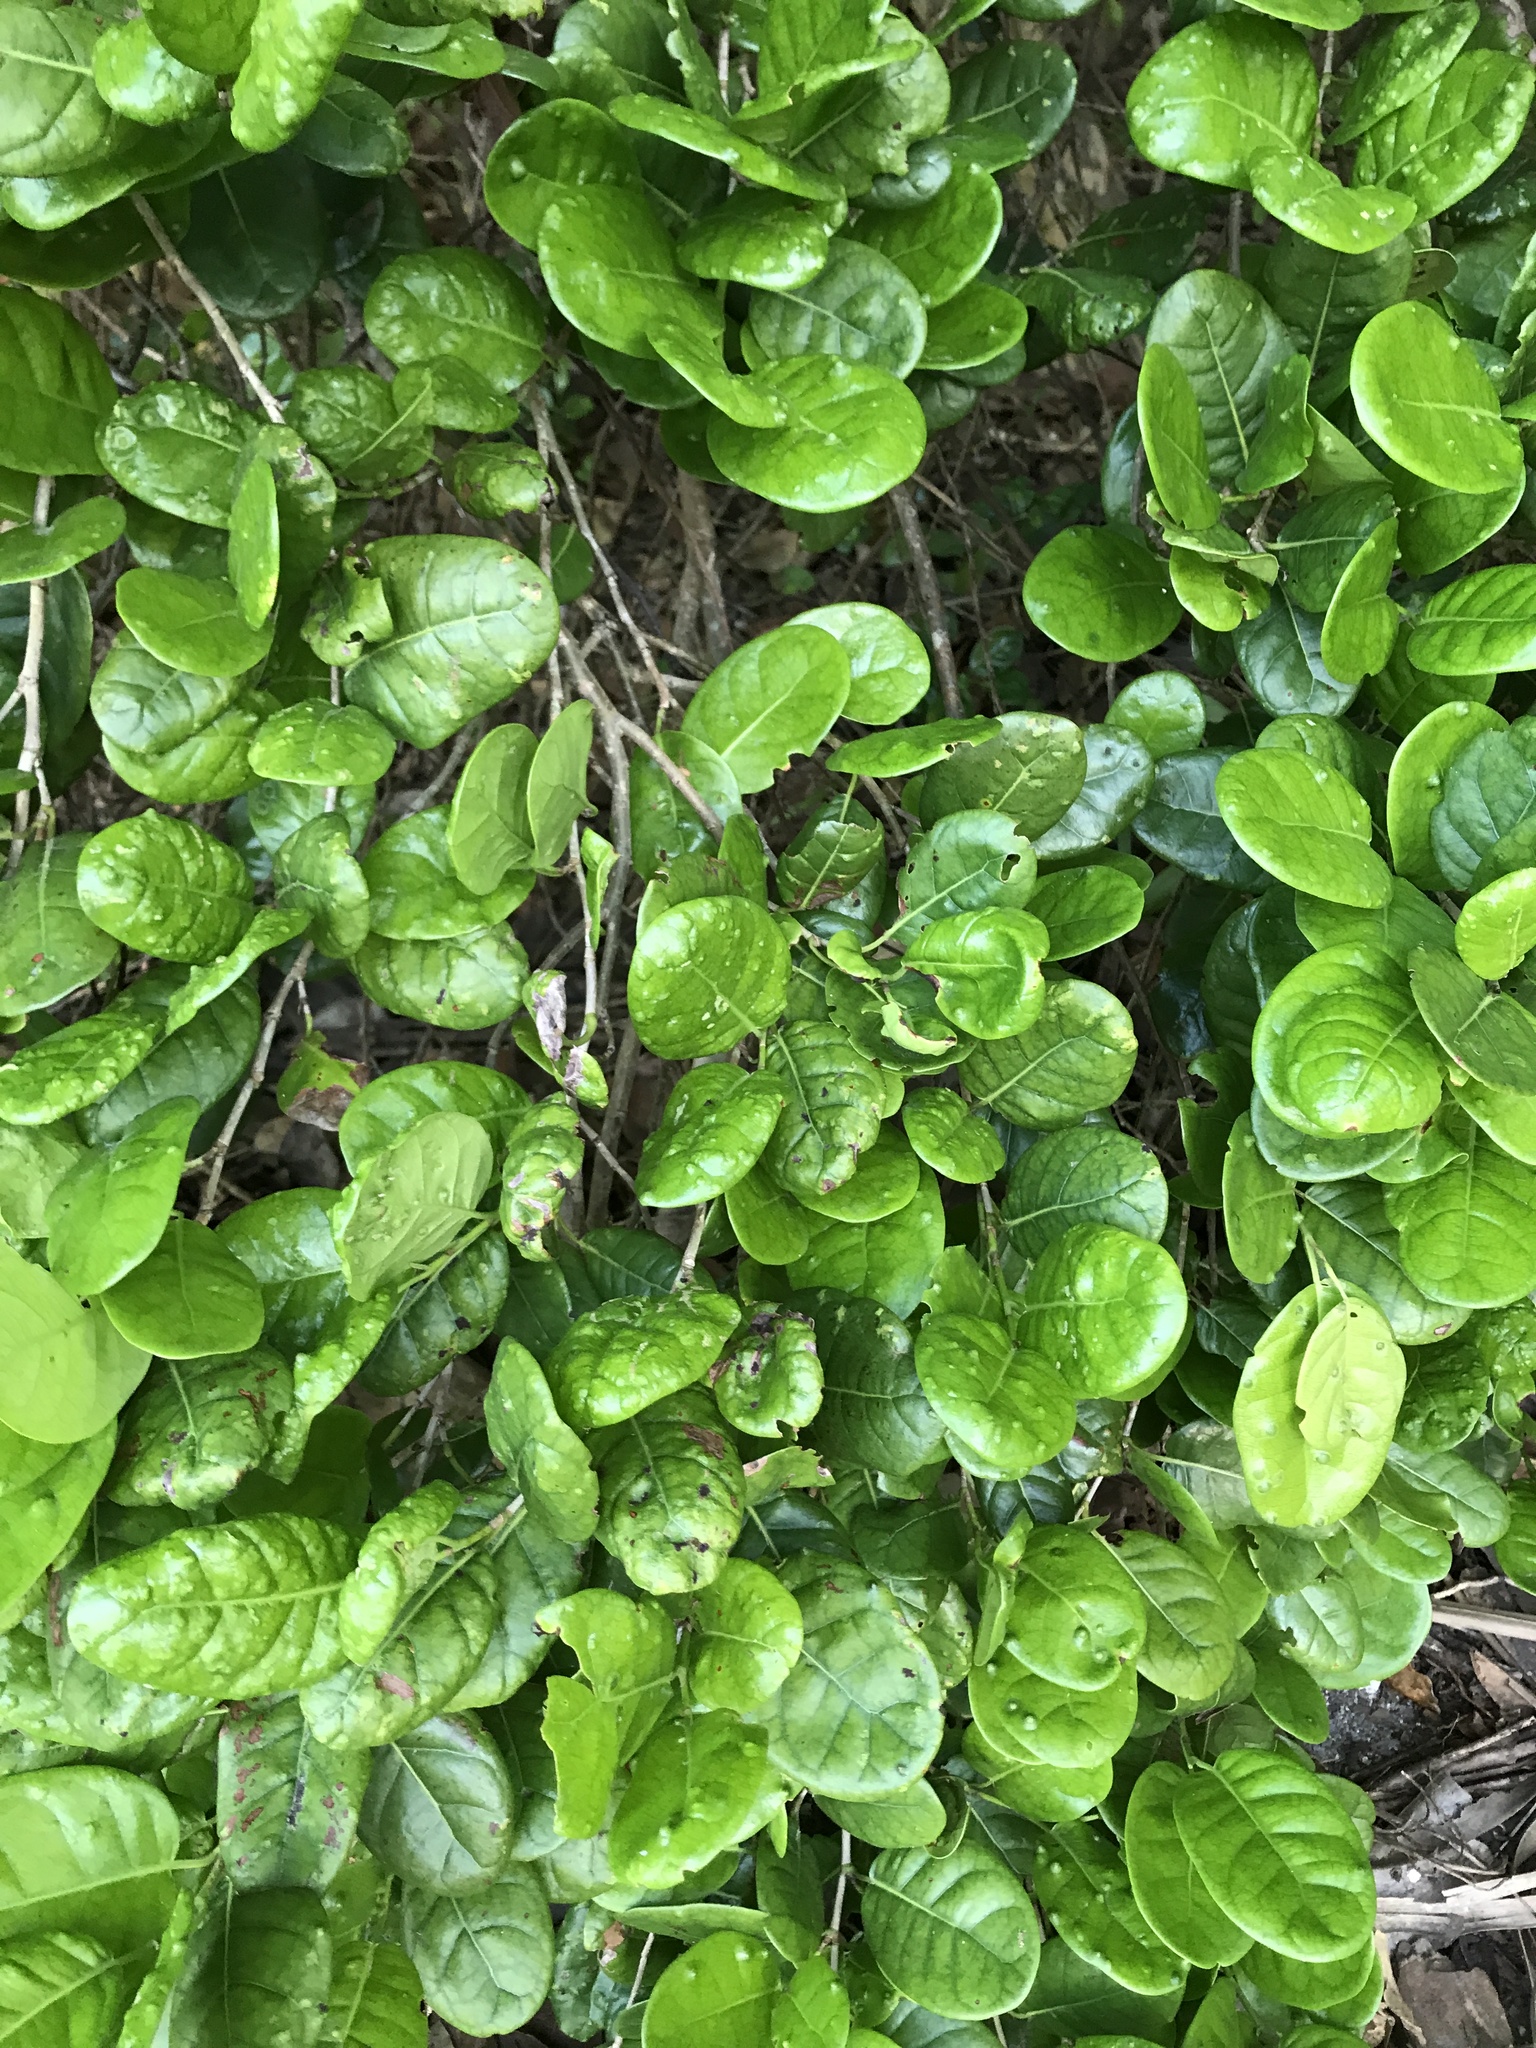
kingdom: Plantae
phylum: Tracheophyta
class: Magnoliopsida
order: Caryophyllales
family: Polygonaceae
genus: Coccoloba
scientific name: Coccoloba diversifolia
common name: Pigeon-plum
